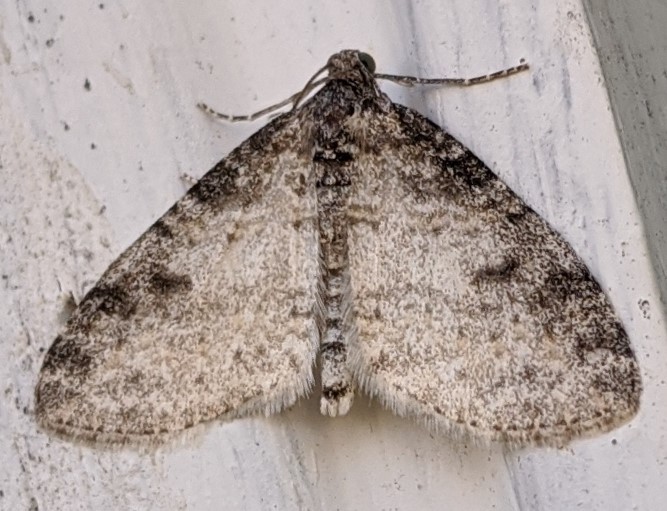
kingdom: Animalia
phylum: Arthropoda
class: Insecta
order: Lepidoptera
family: Geometridae
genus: Lobophora
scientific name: Lobophora nivigerata
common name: Powdered bigwing
